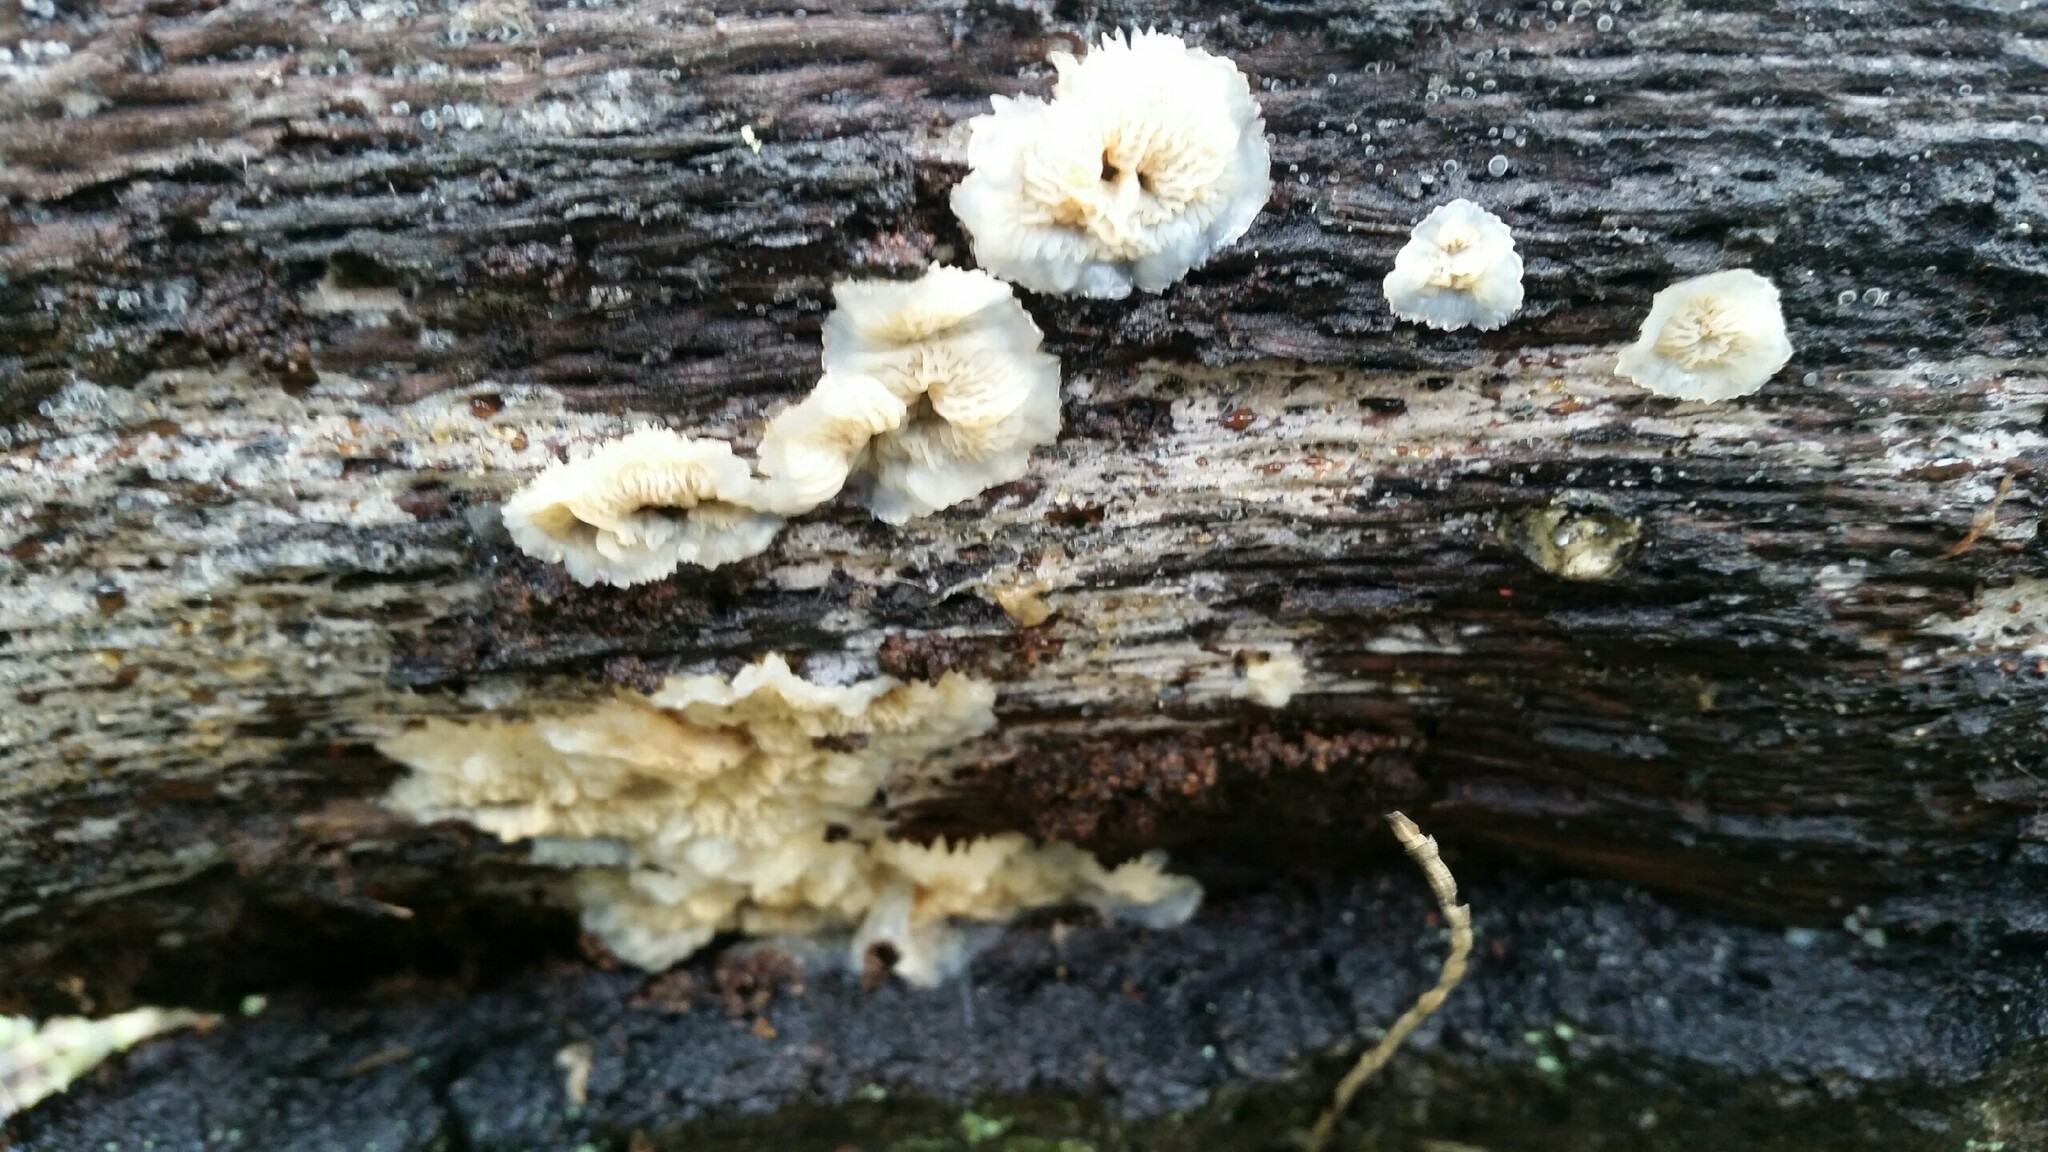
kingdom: Fungi
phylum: Basidiomycota
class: Agaricomycetes
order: Polyporales
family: Meruliaceae
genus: Phlebia
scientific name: Phlebia tremellosa
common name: Jelly rot
